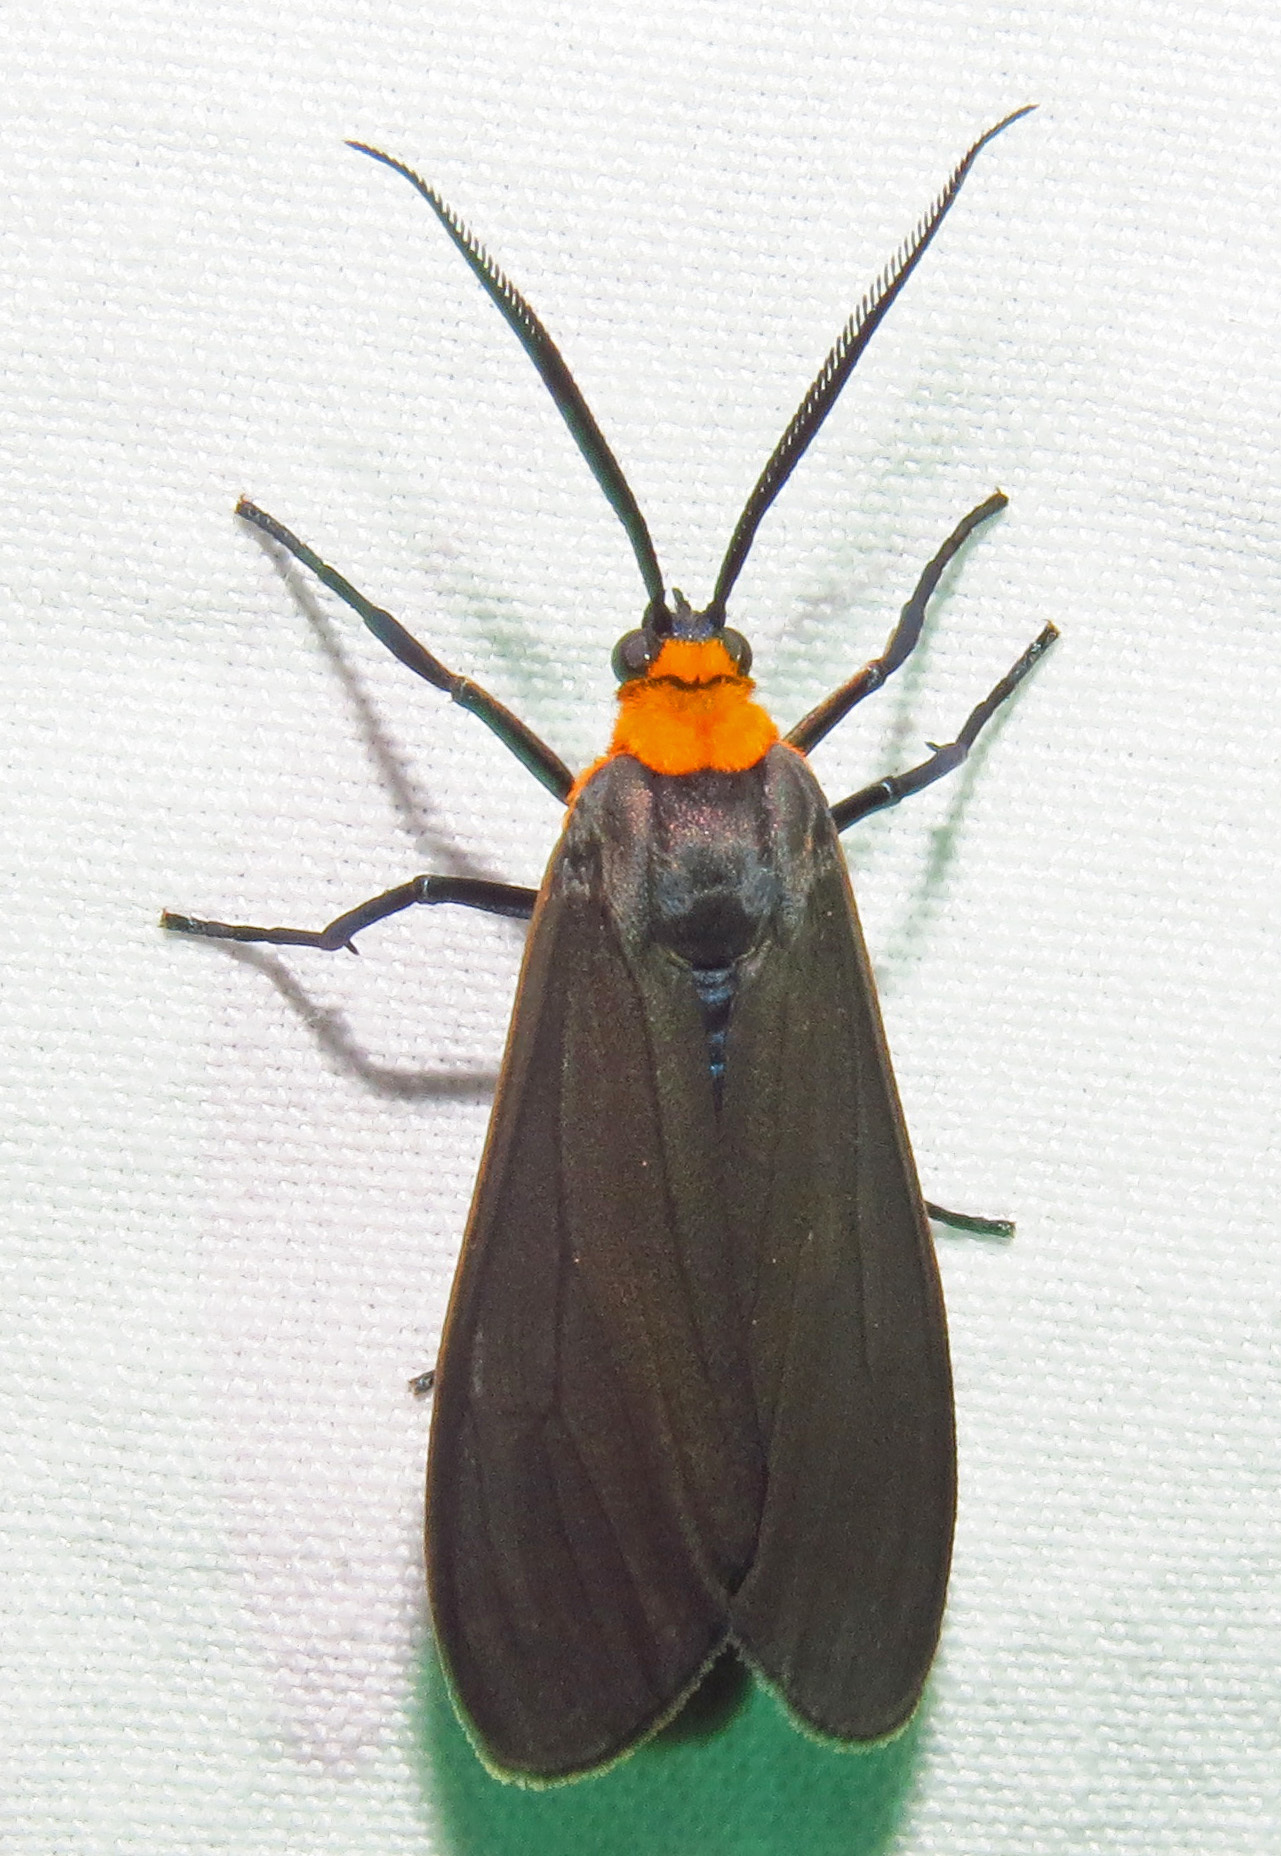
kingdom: Animalia
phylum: Arthropoda
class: Insecta
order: Lepidoptera
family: Erebidae
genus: Cisseps
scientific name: Cisseps fulvicollis
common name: Yellow-collared scape moth
